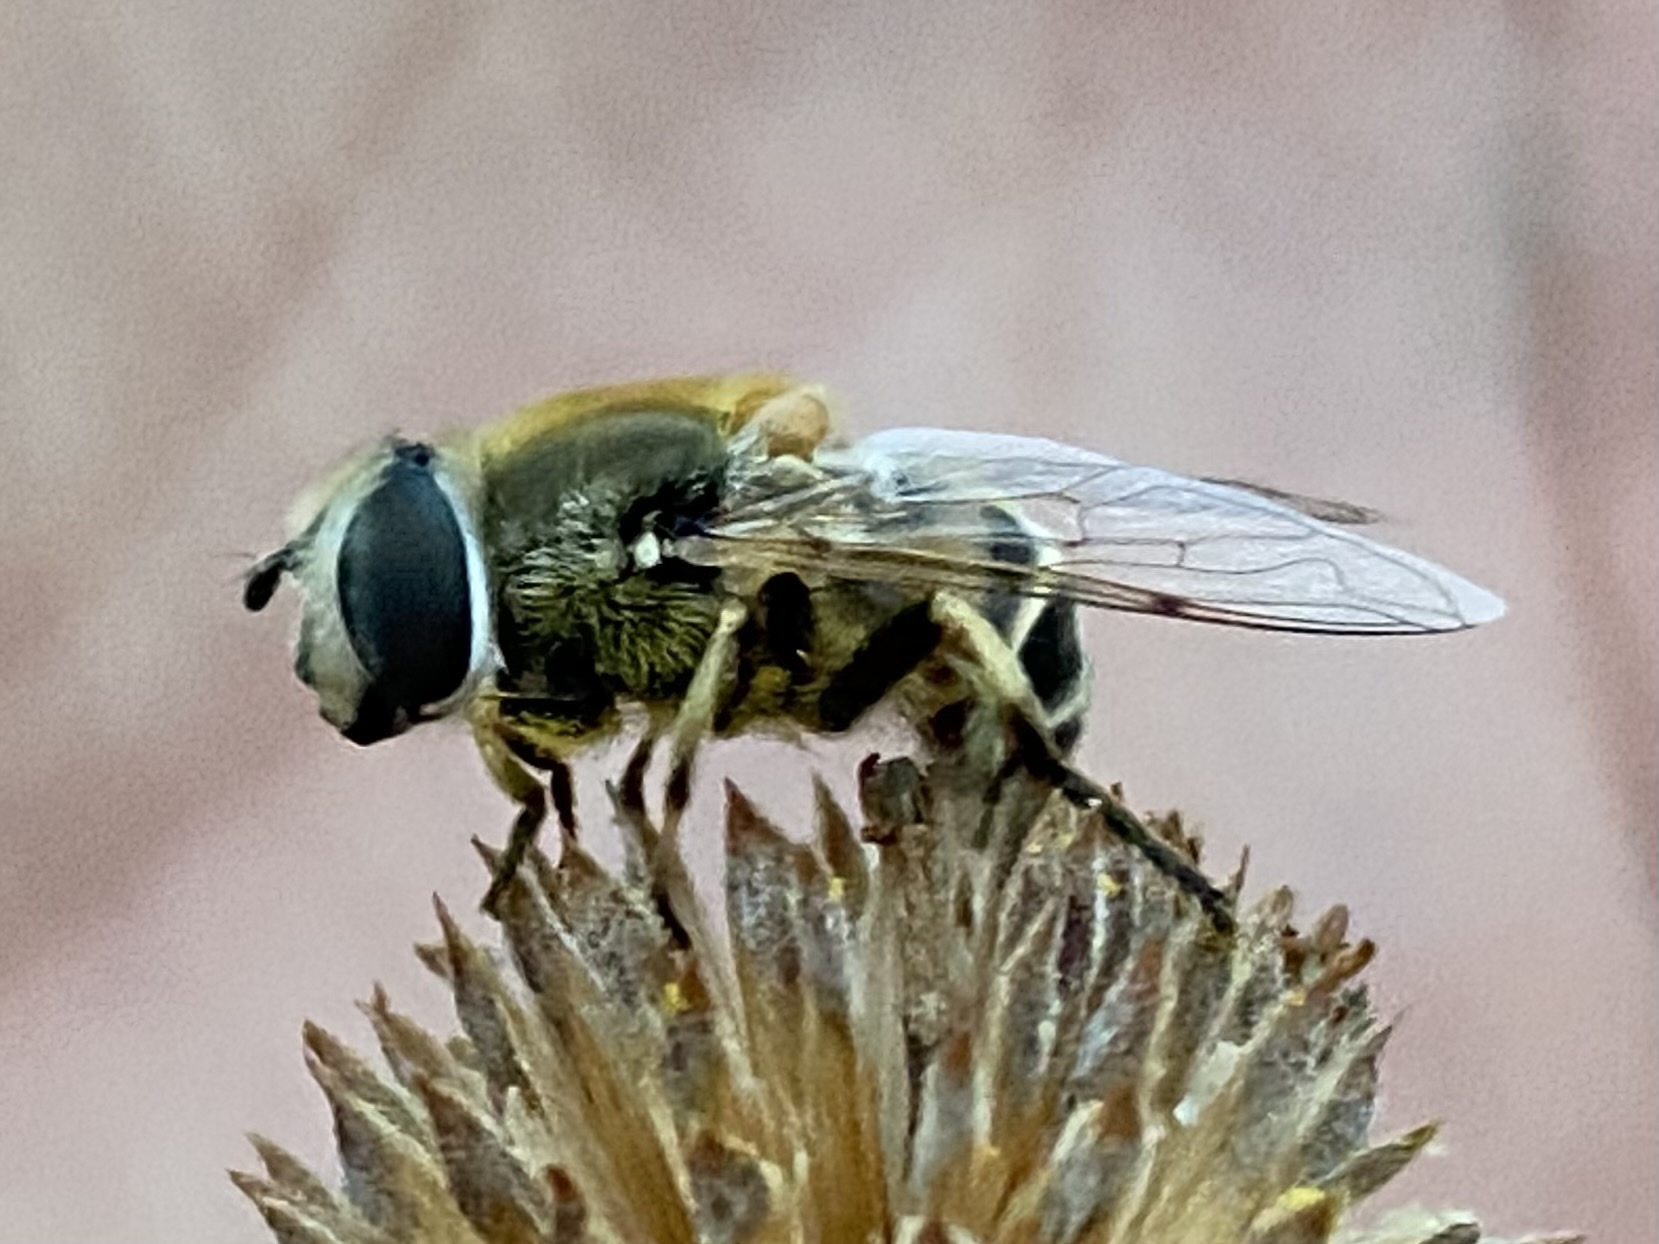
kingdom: Animalia
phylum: Arthropoda
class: Insecta
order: Diptera
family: Syrphidae
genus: Eristalis
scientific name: Eristalis stipator
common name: Yellow-shouldered drone fly
